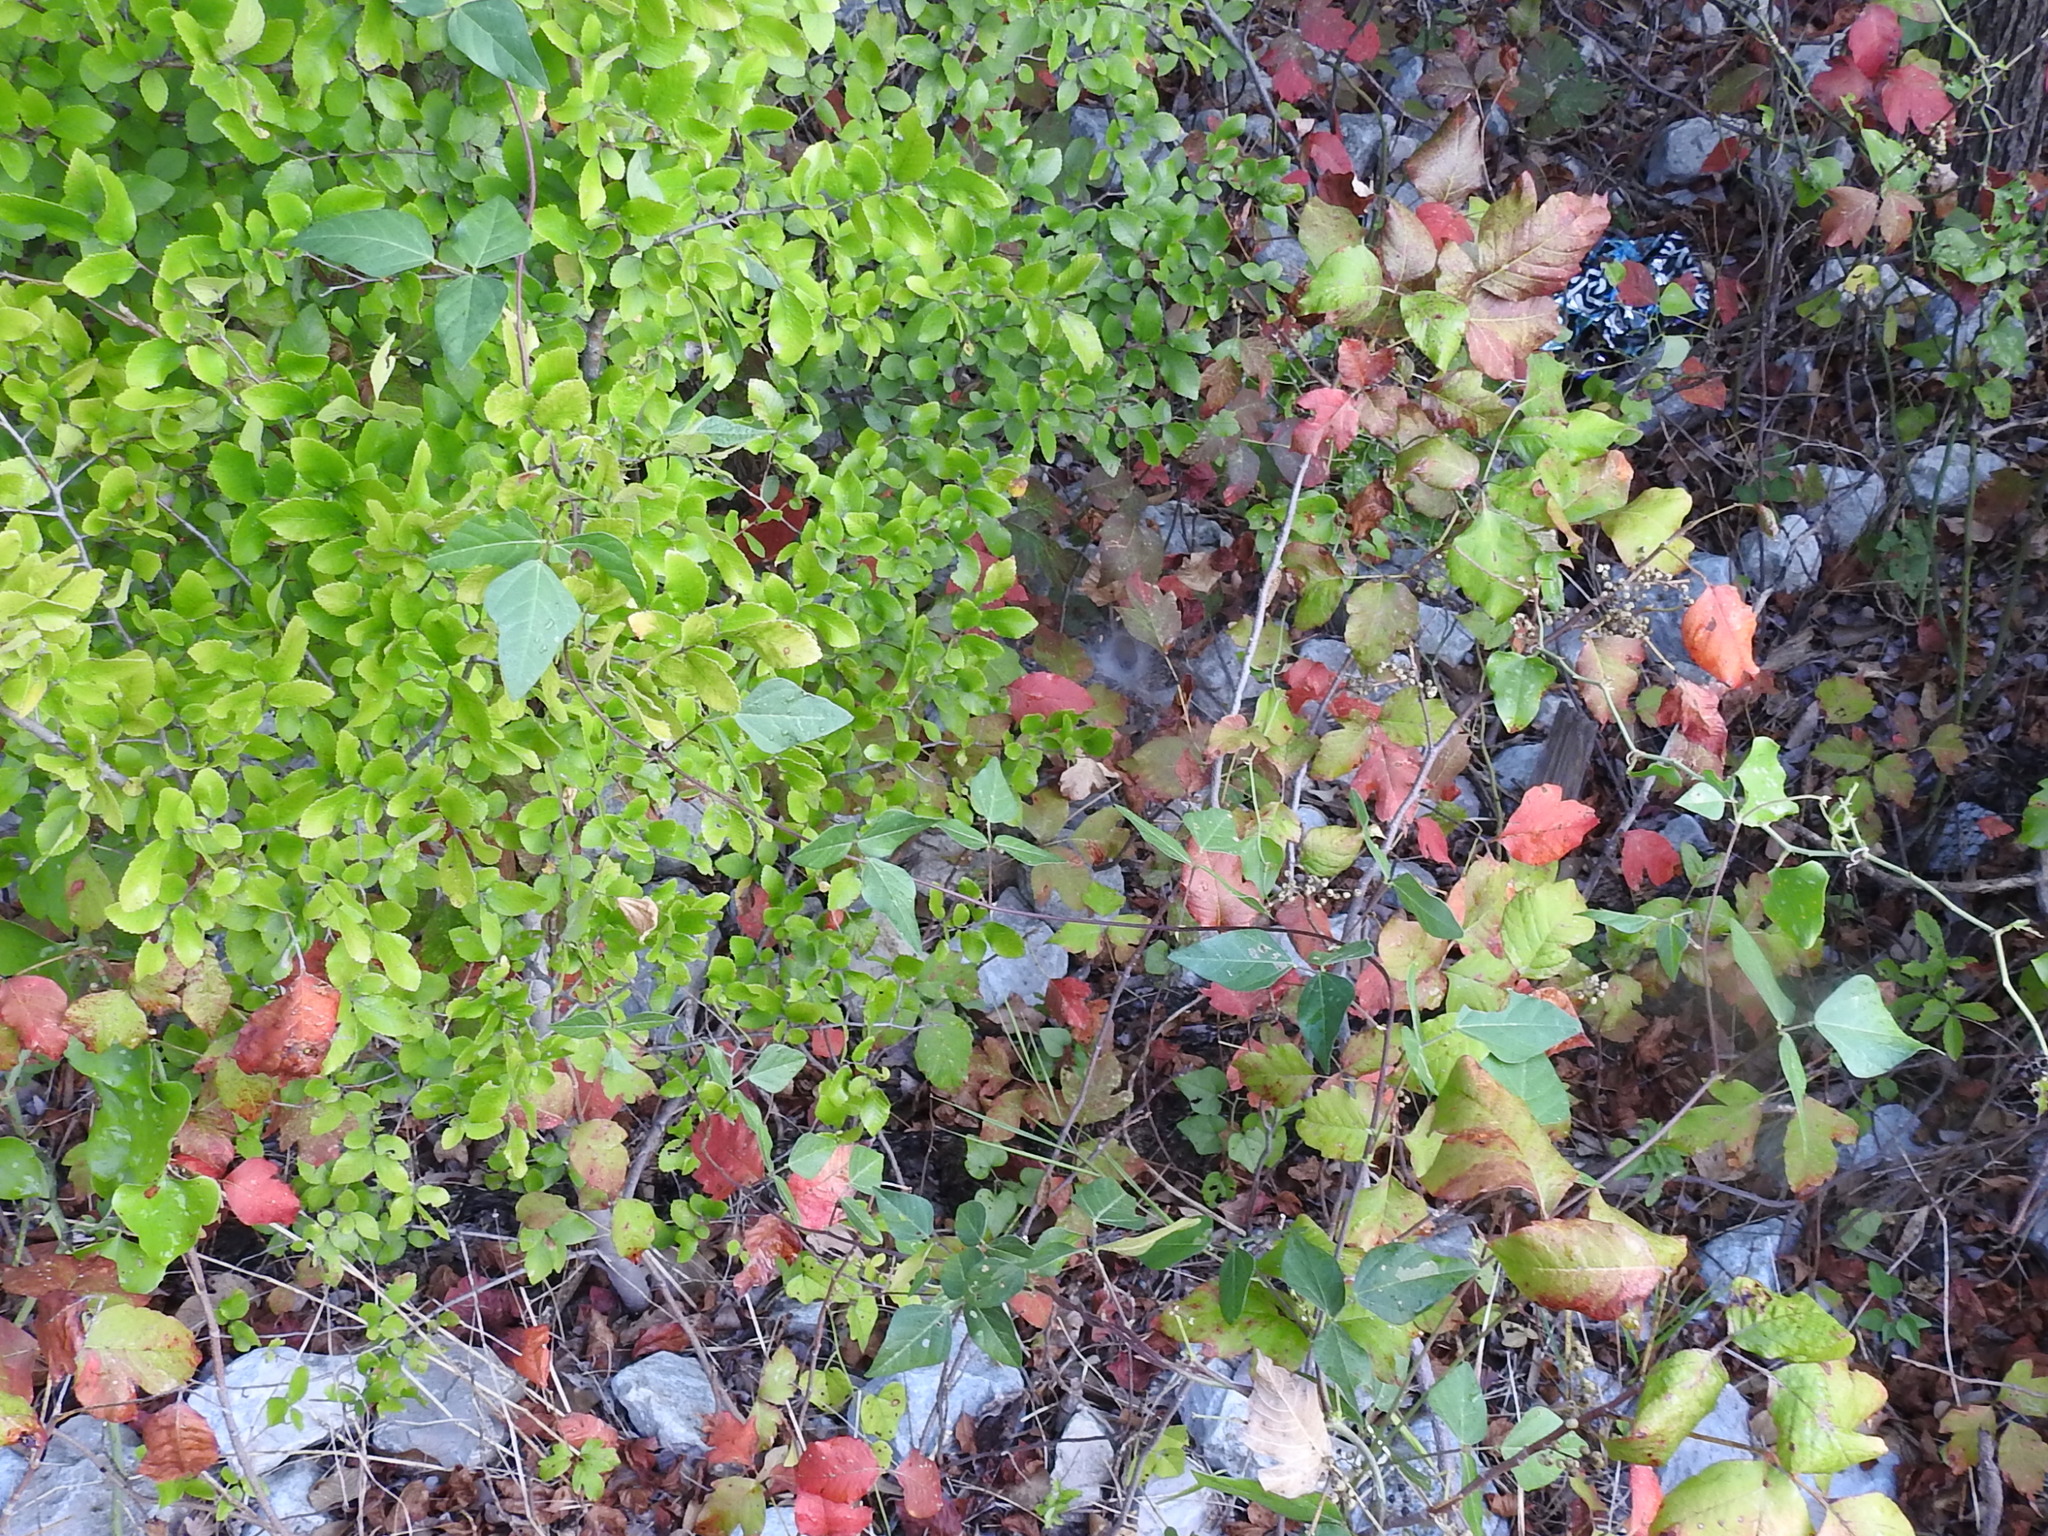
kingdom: Plantae
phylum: Tracheophyta
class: Magnoliopsida
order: Fabales
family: Fabaceae
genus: Strophostyles
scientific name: Strophostyles helvola
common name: Trailing wild bean
